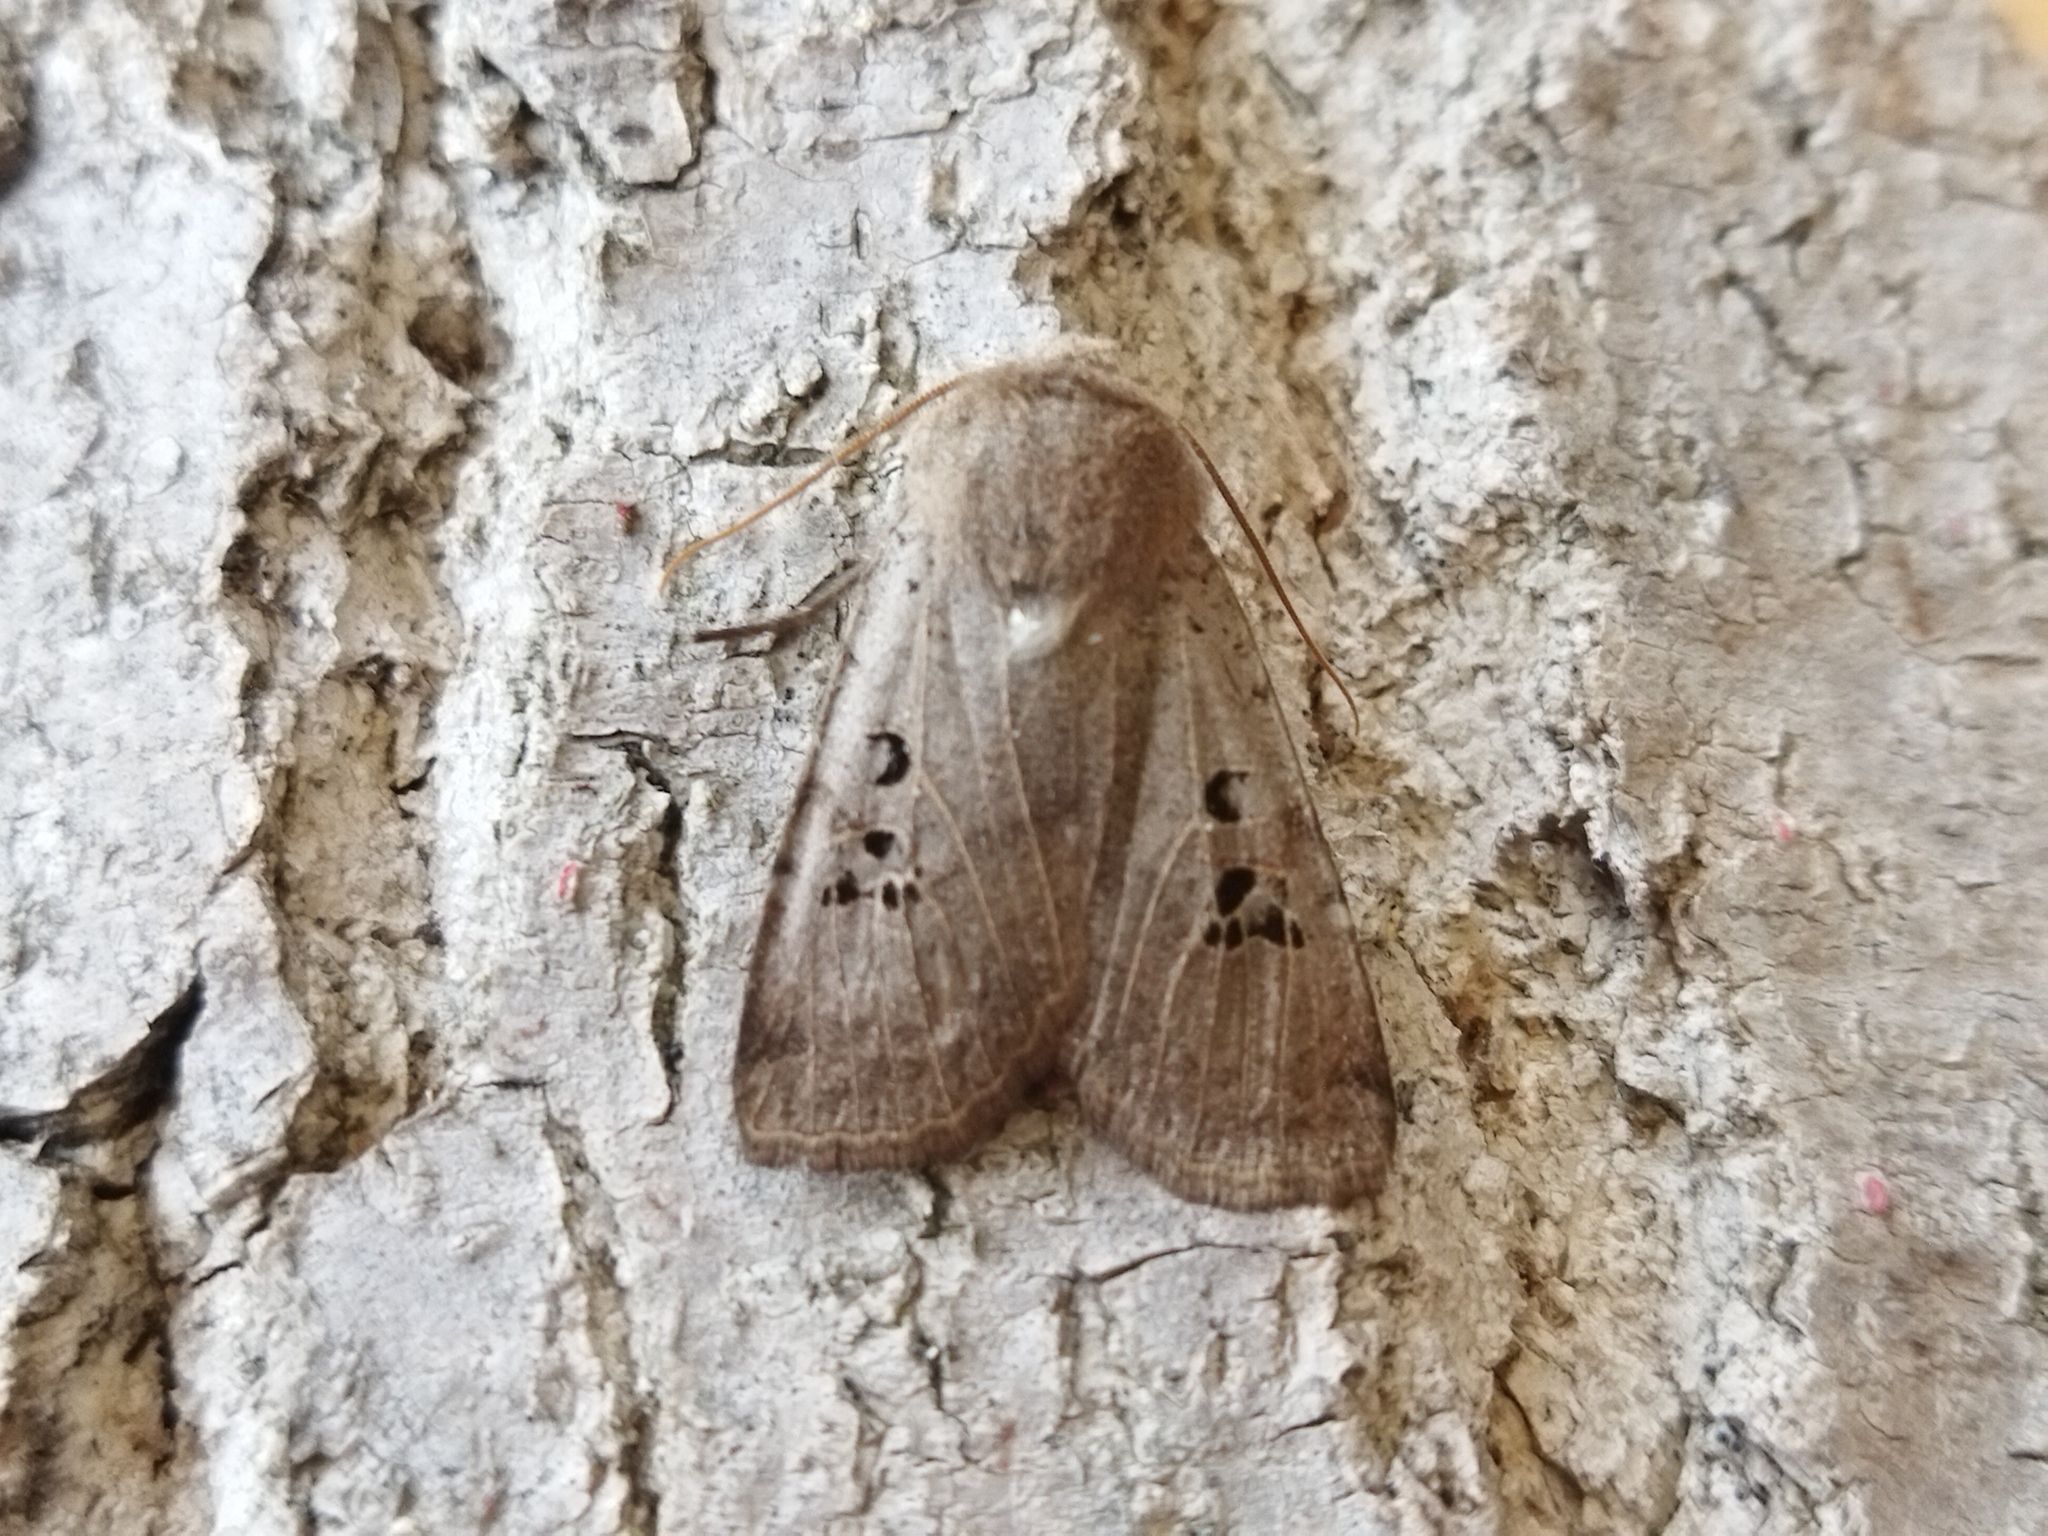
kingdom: Animalia
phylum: Arthropoda
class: Insecta
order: Lepidoptera
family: Noctuidae
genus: Conistra
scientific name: Conistra rubiginosa
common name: Black-spotted chestnut
